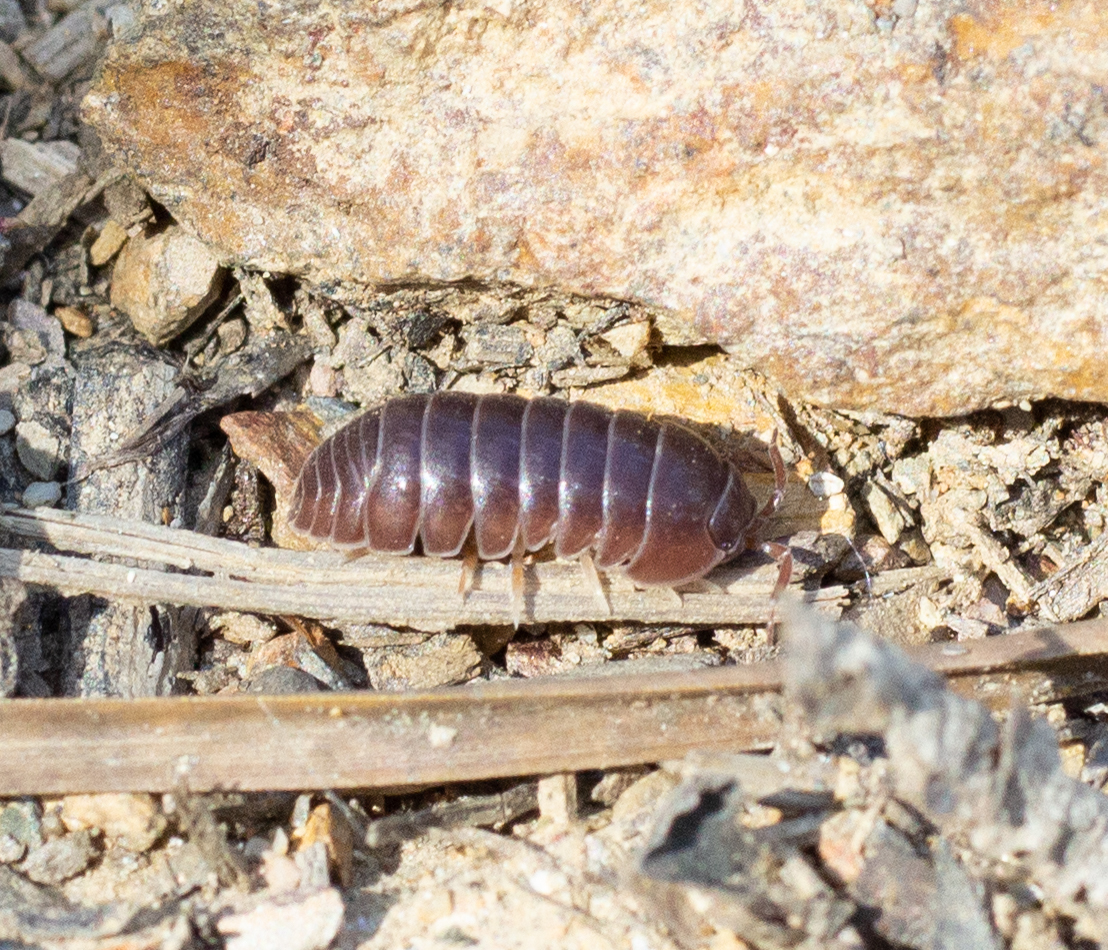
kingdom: Animalia
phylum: Arthropoda
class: Malacostraca
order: Isopoda
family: Armadillidiidae
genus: Eluma
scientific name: Eluma caelata
